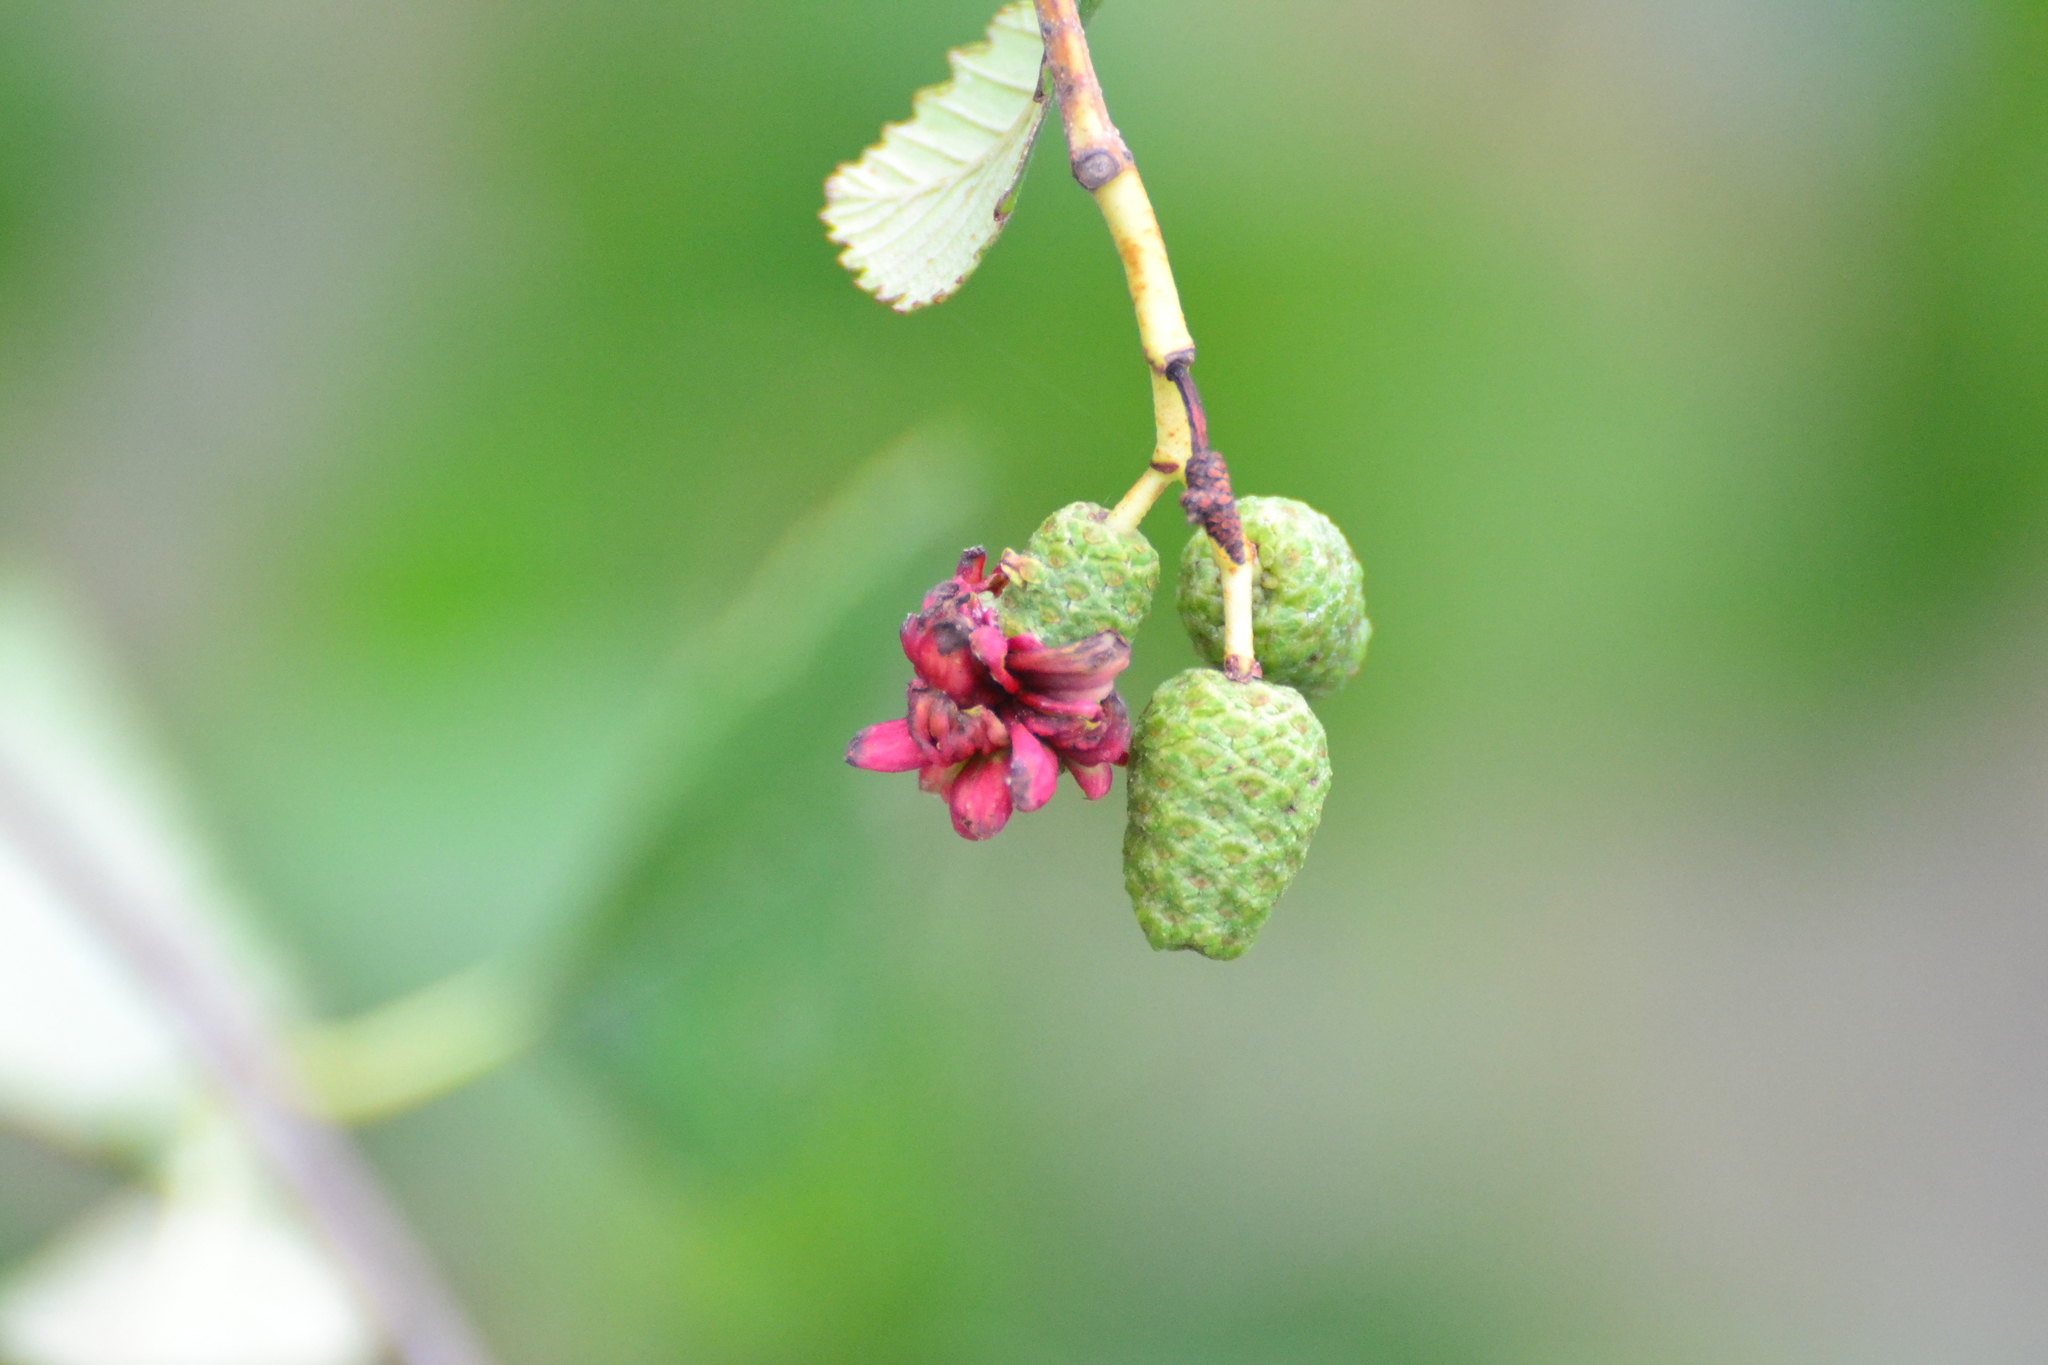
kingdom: Fungi
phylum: Ascomycota
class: Taphrinomycetes
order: Taphrinales
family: Taphrinaceae
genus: Taphrina
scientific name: Taphrina occidentalis
